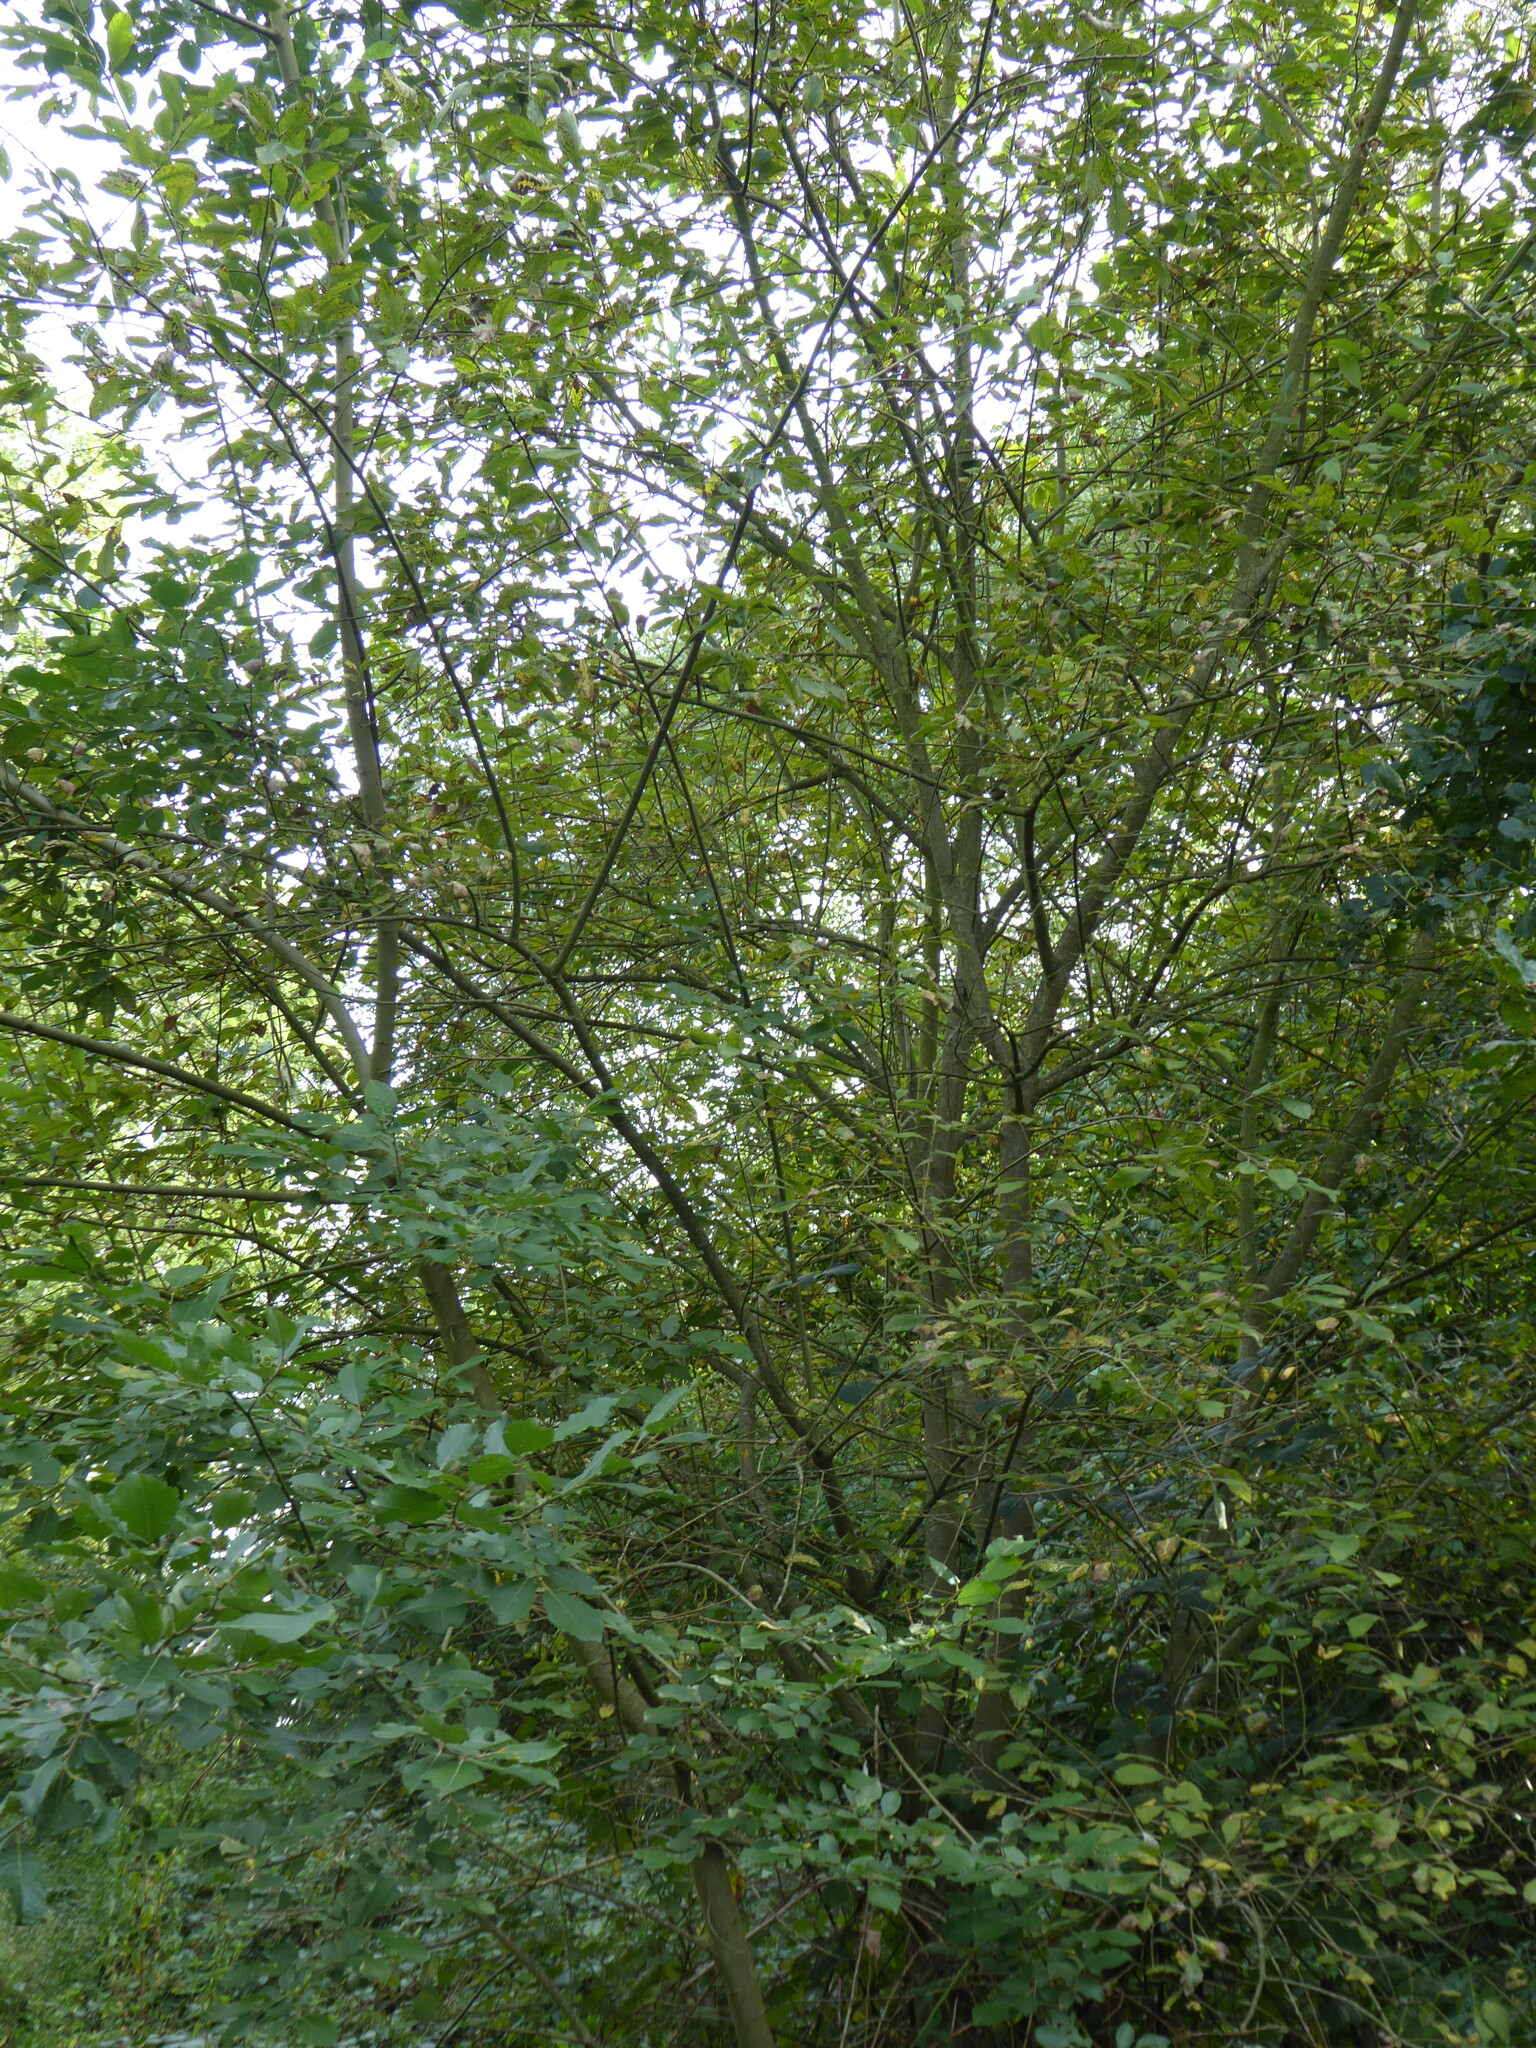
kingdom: Plantae
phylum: Tracheophyta
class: Magnoliopsida
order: Malpighiales
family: Salicaceae
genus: Salix
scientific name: Salix caprea
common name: Goat willow
